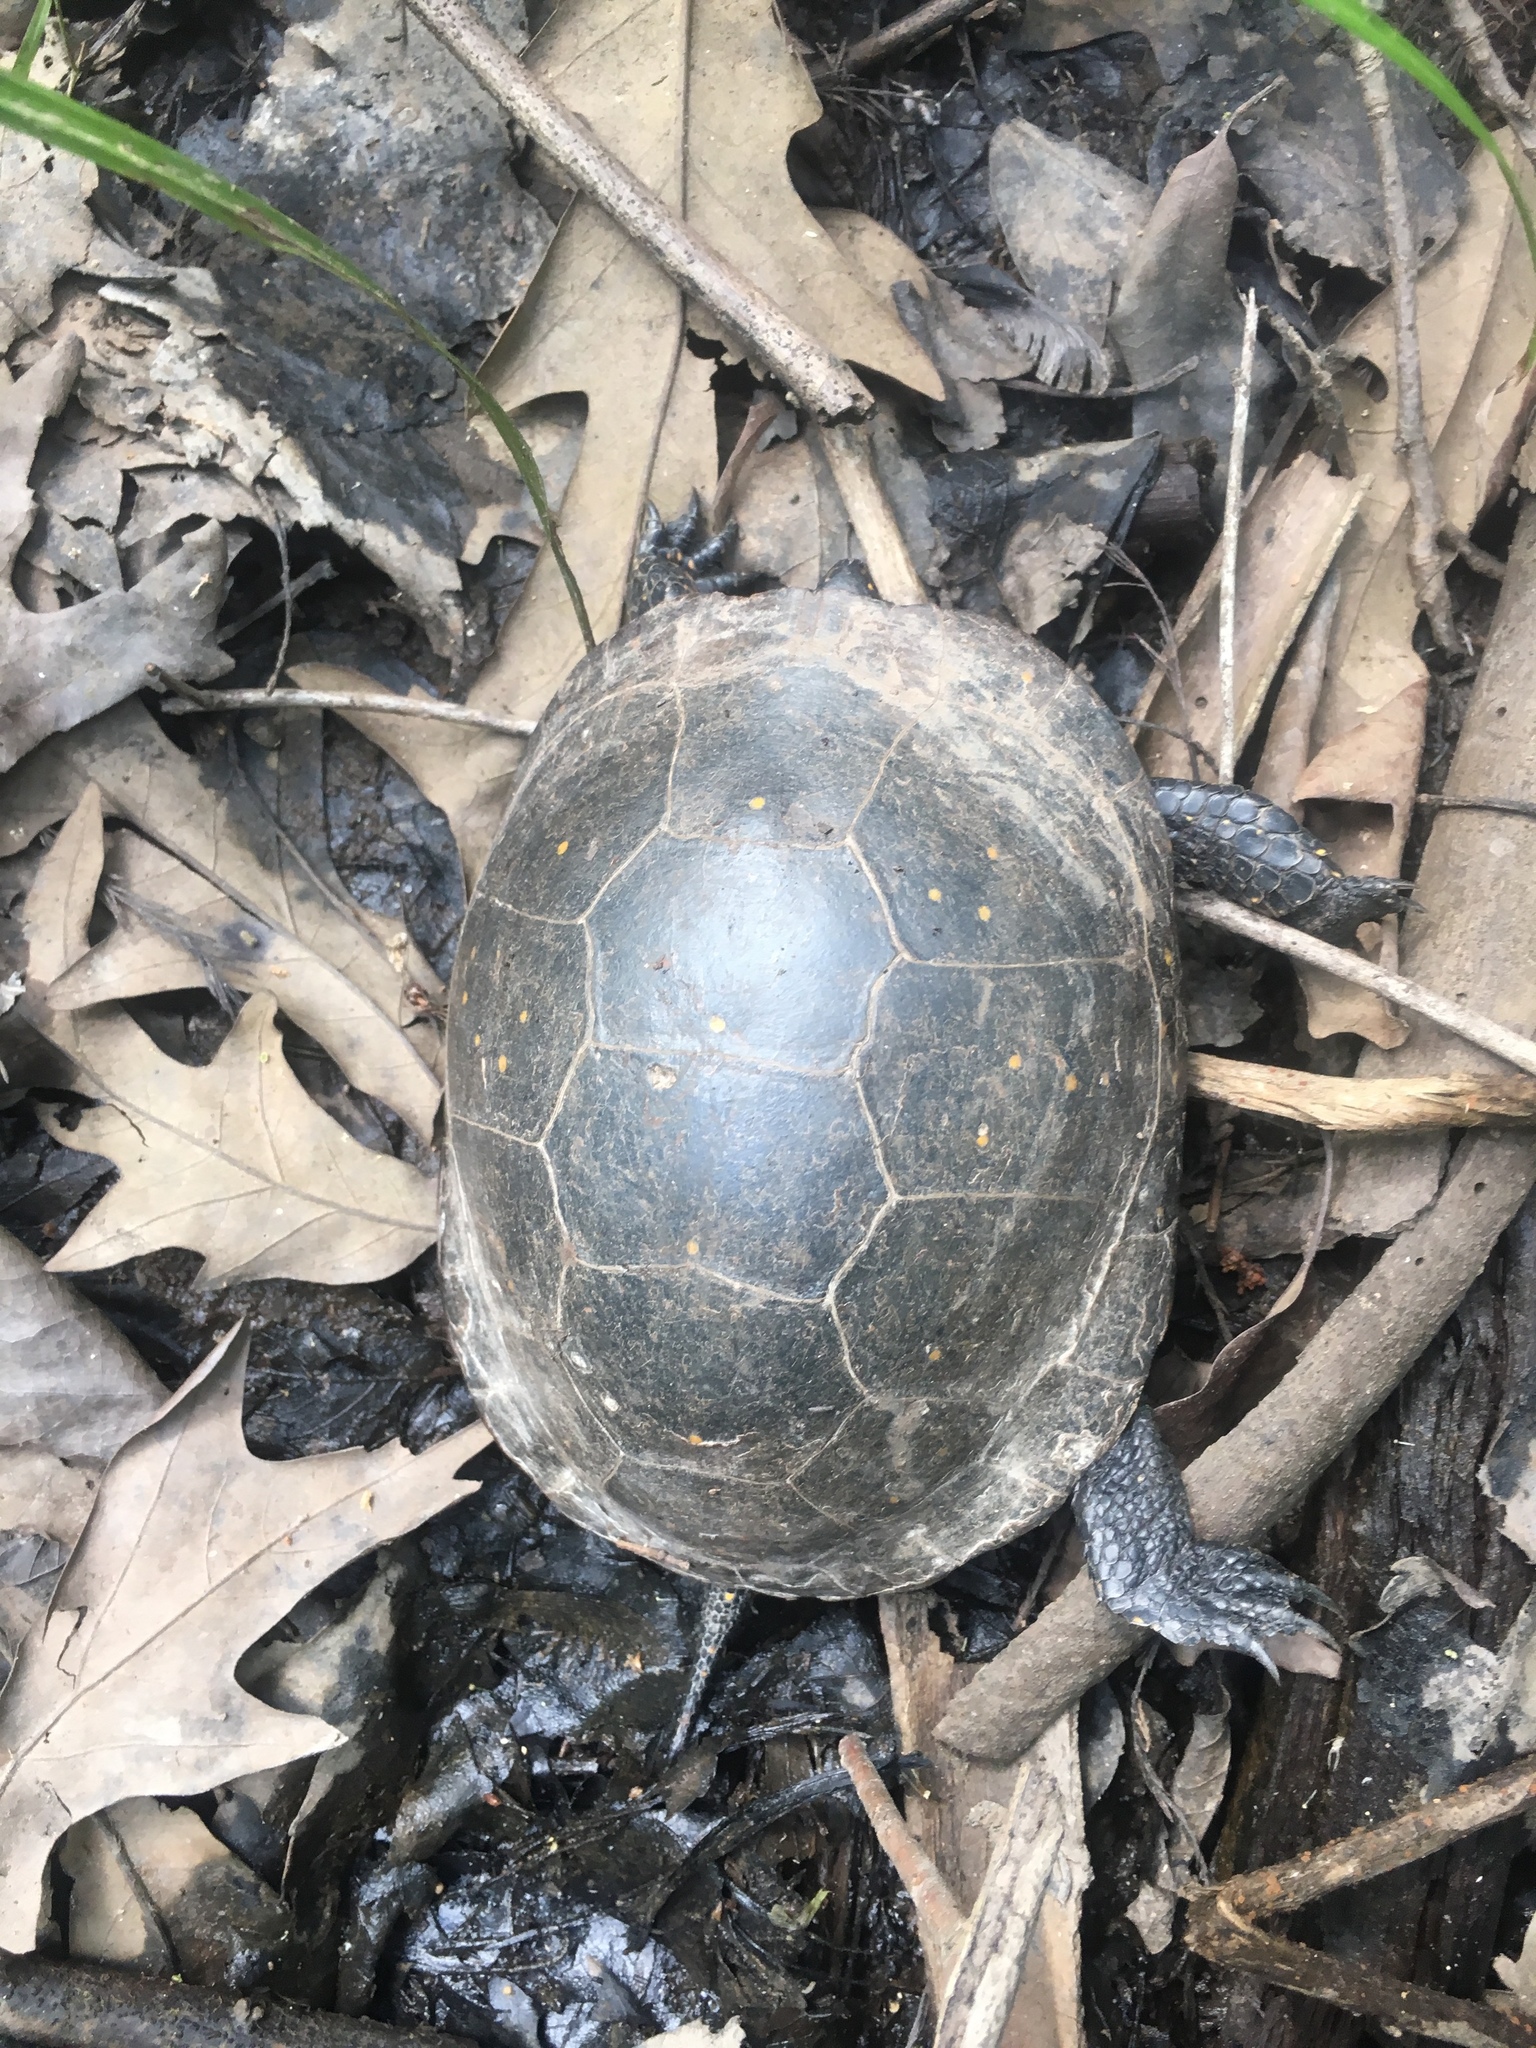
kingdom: Animalia
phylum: Chordata
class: Testudines
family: Emydidae
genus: Clemmys
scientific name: Clemmys guttata
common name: Spotted turtle
